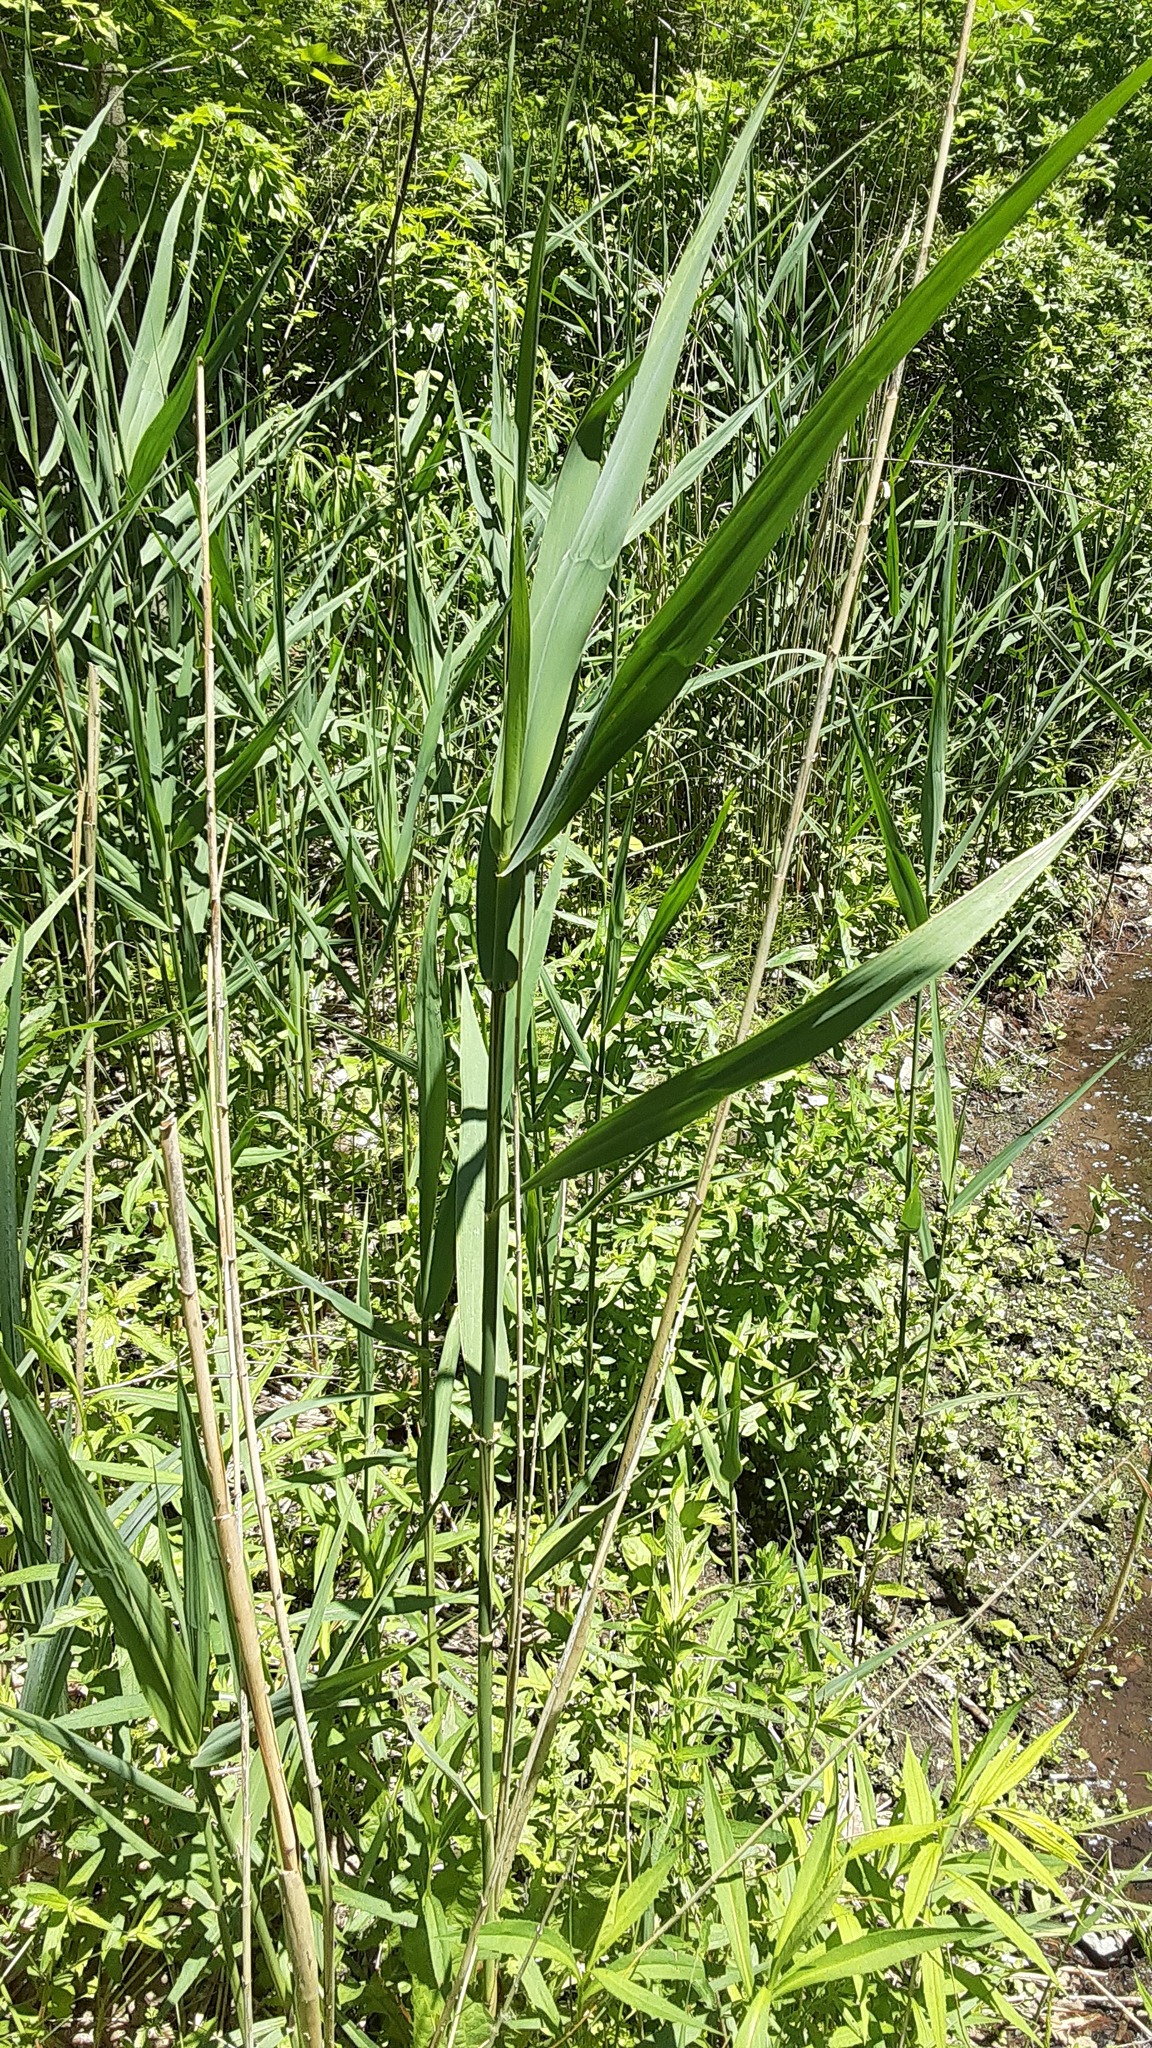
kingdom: Plantae
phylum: Tracheophyta
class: Liliopsida
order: Poales
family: Poaceae
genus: Phragmites
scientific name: Phragmites australis
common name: Common reed
